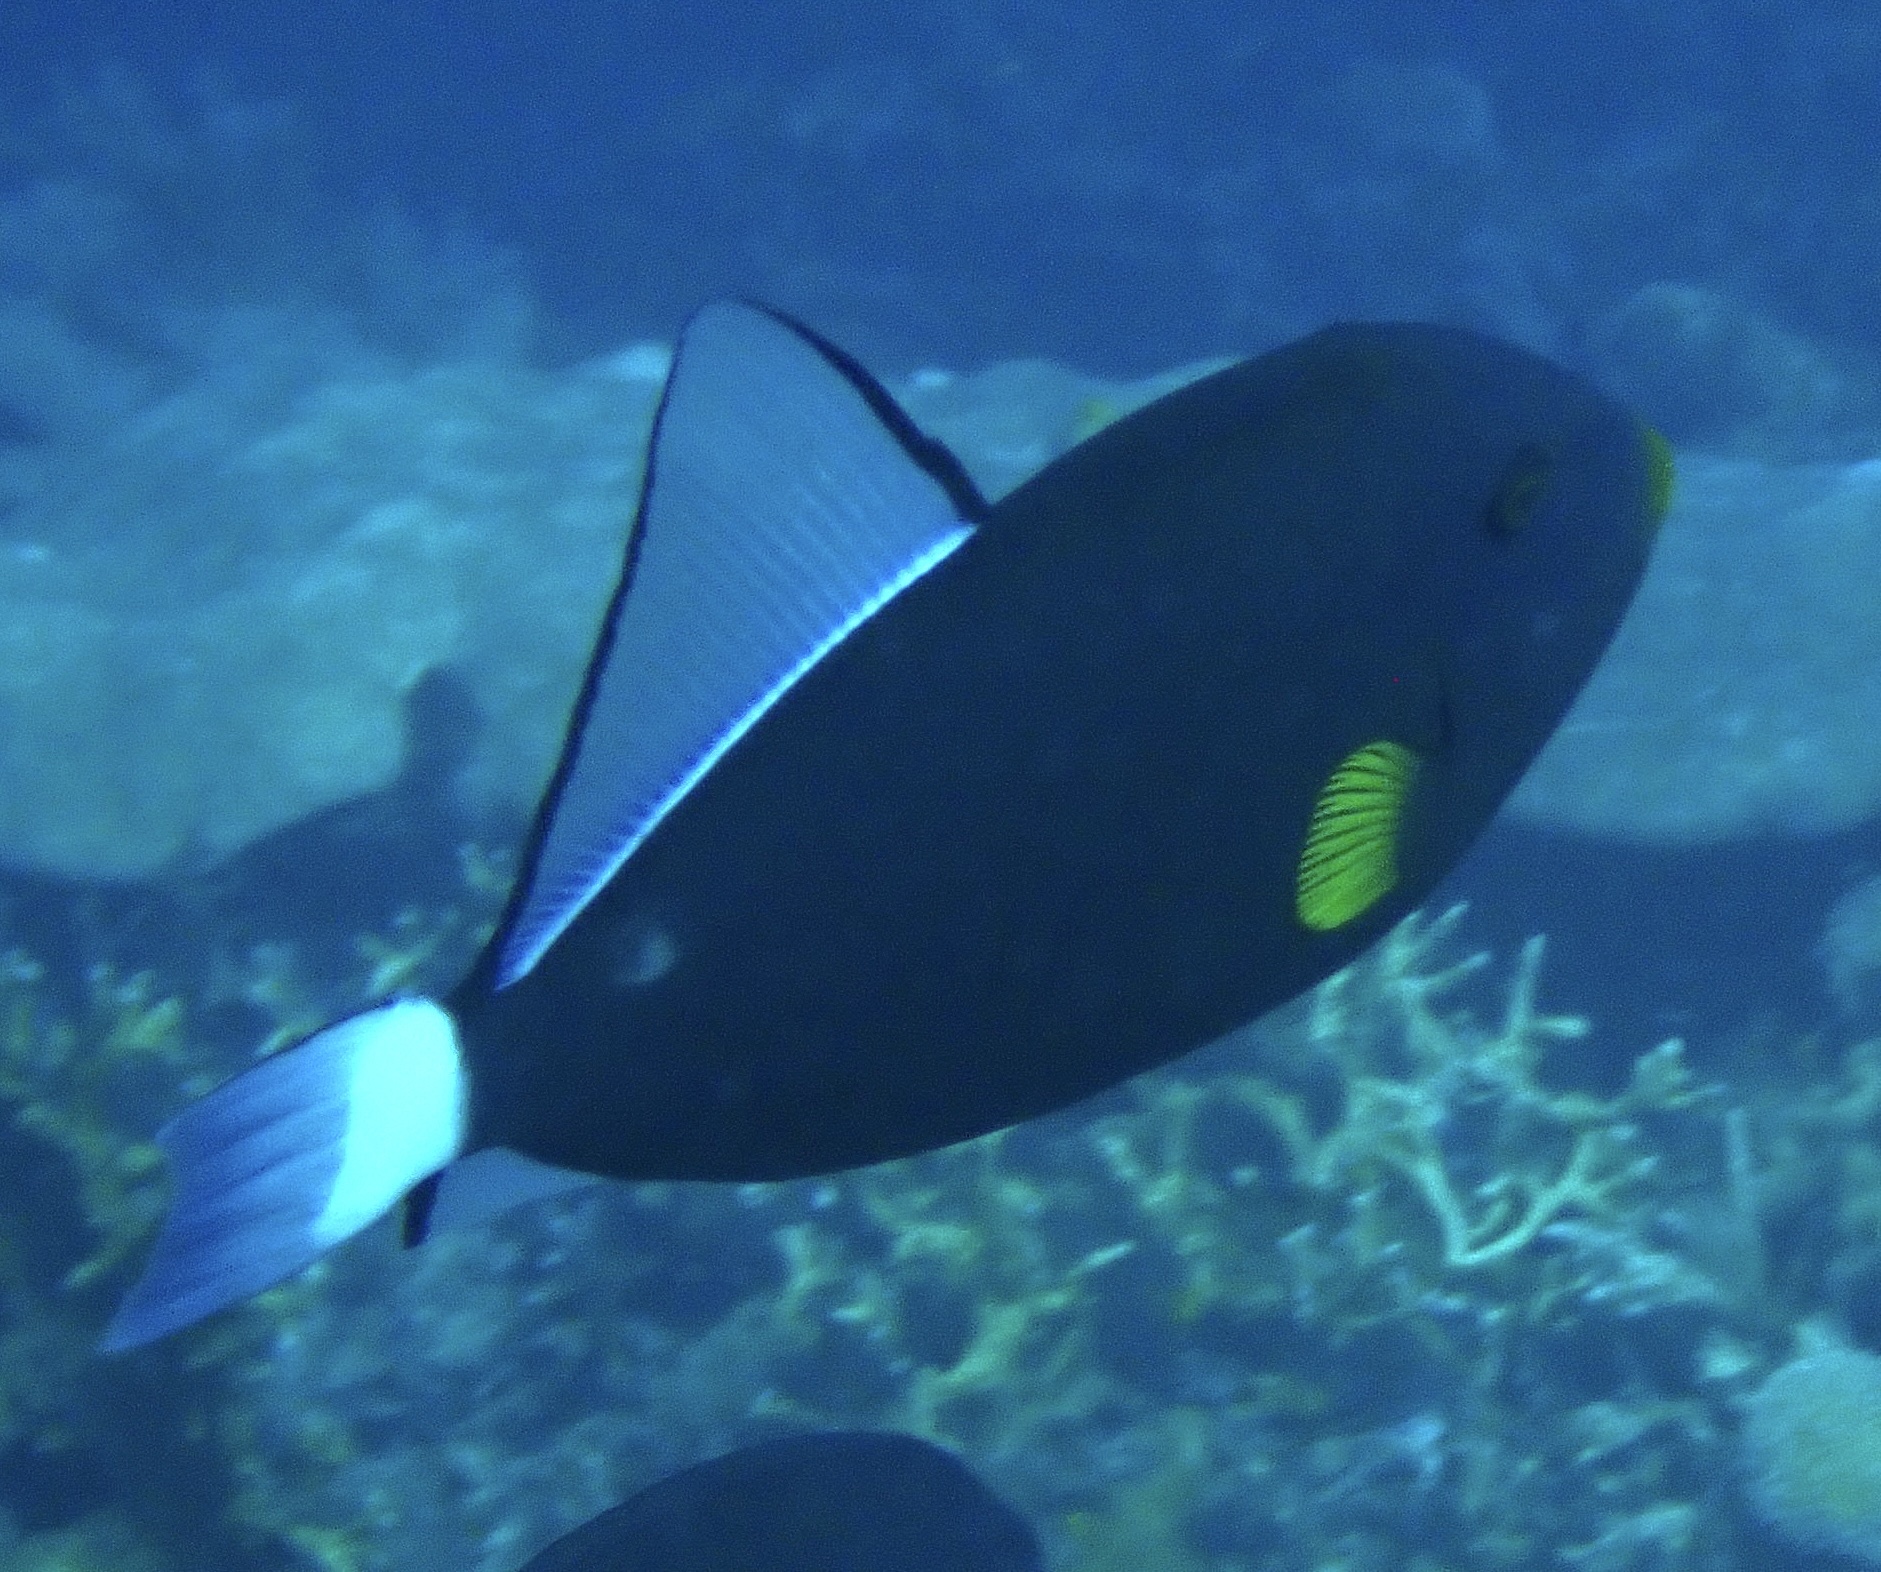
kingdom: Animalia
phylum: Chordata
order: Tetraodontiformes
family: Balistidae
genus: Melichthys
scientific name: Melichthys vidua
